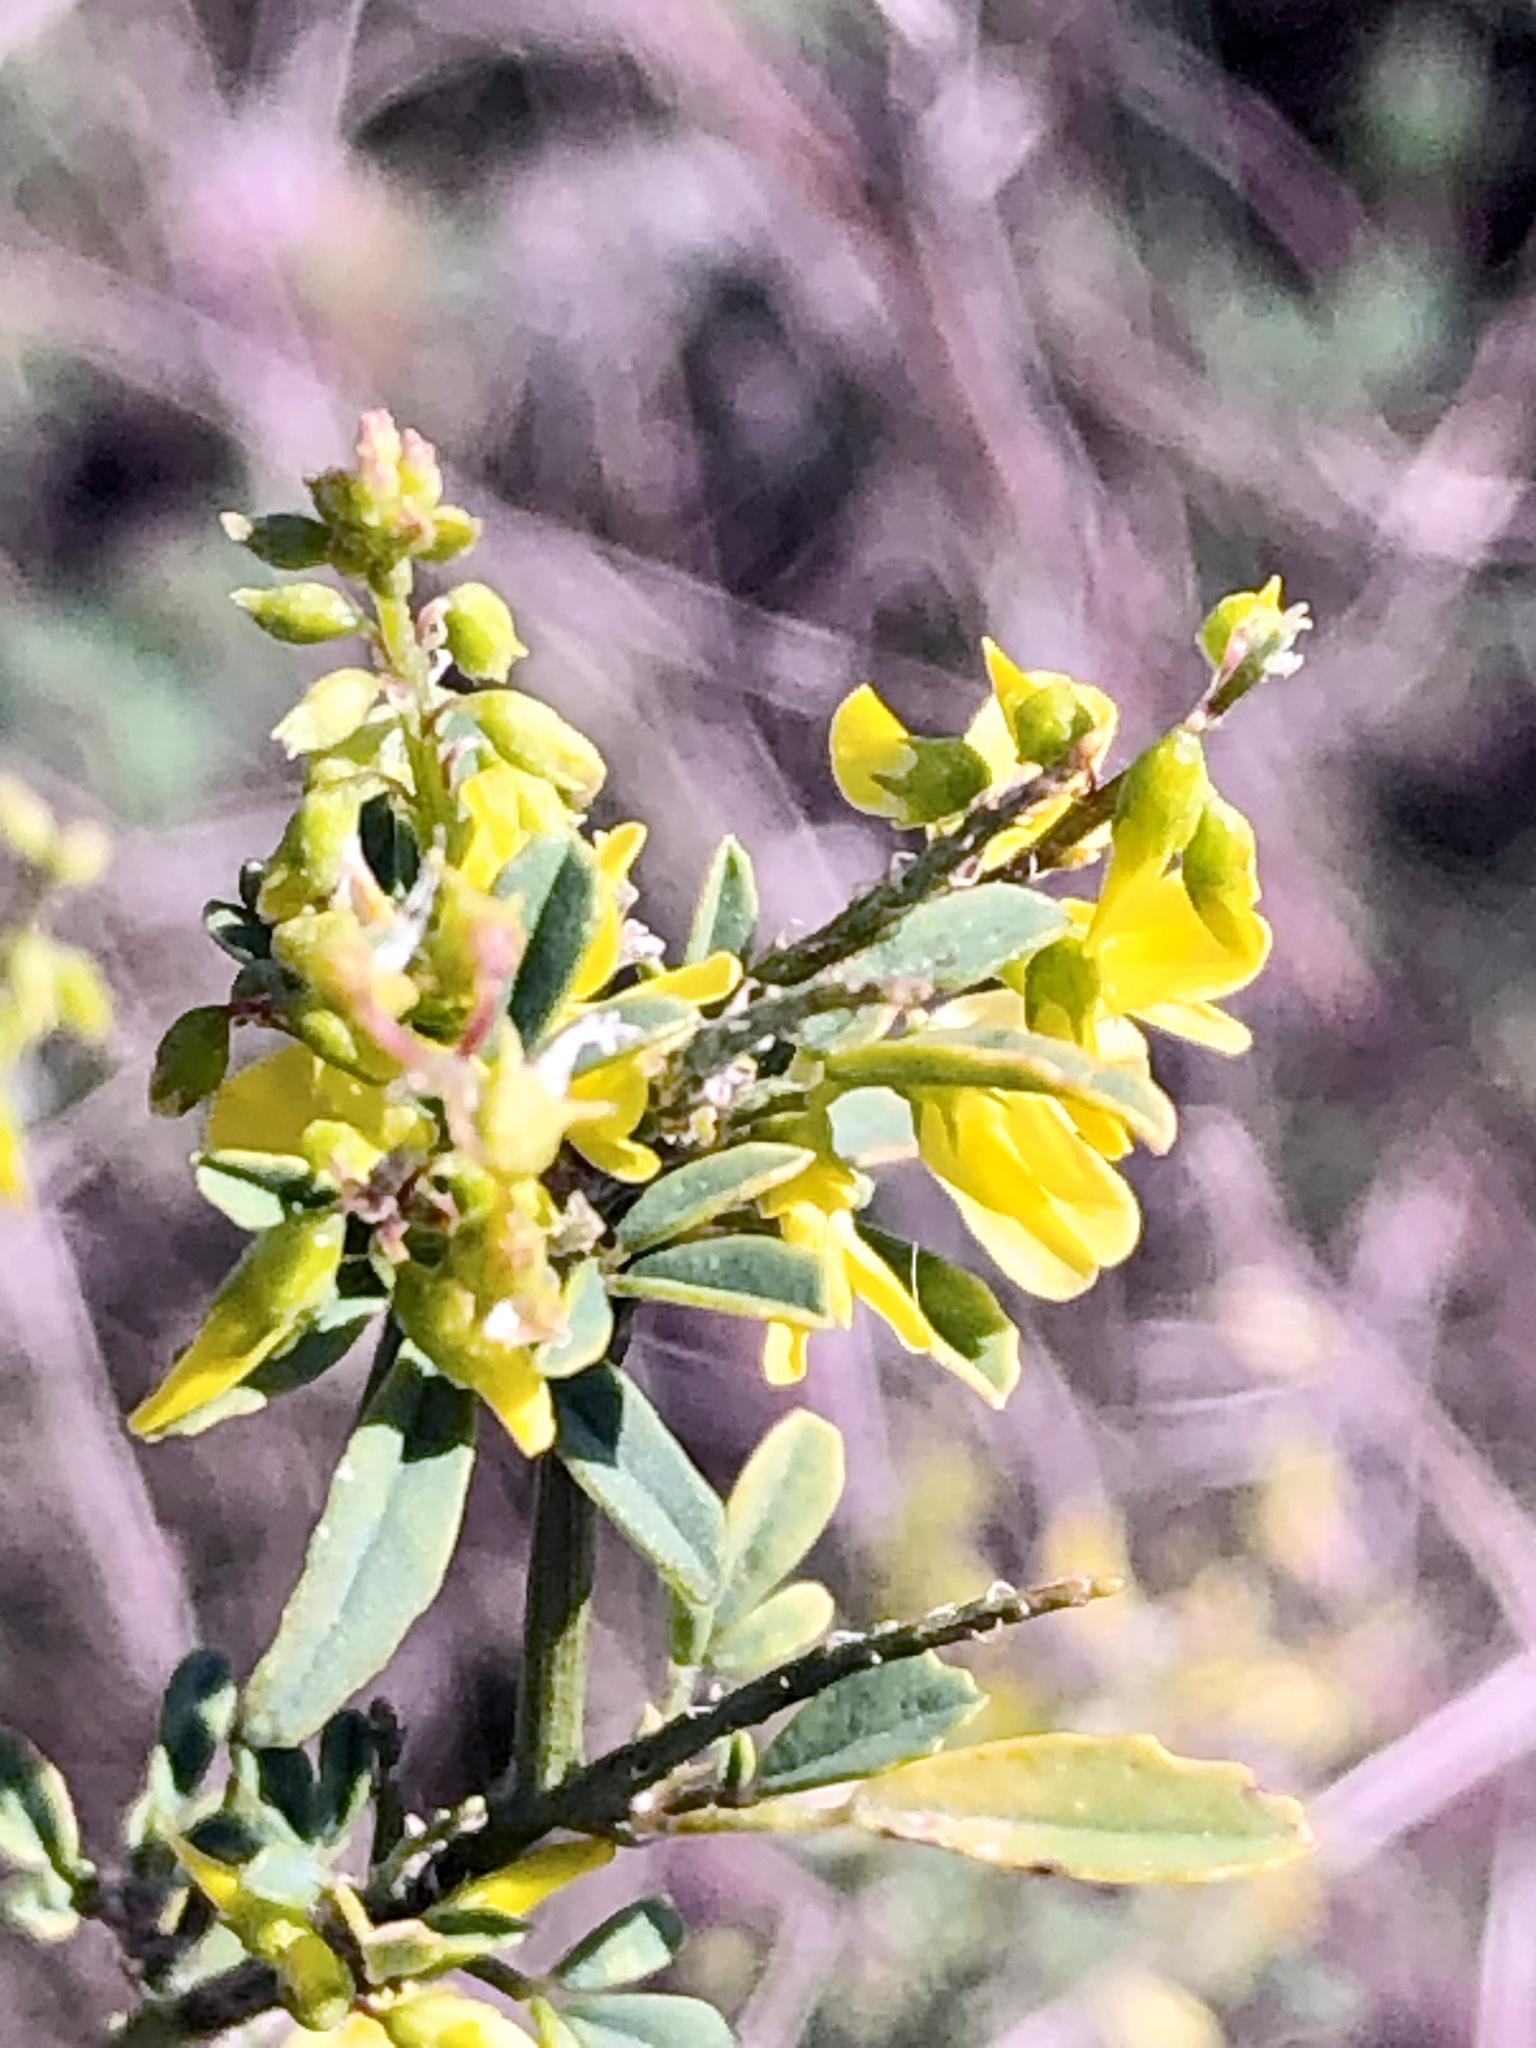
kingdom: Plantae
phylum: Tracheophyta
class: Magnoliopsida
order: Fabales
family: Fabaceae
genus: Melilotus
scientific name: Melilotus officinalis
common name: Sweetclover
